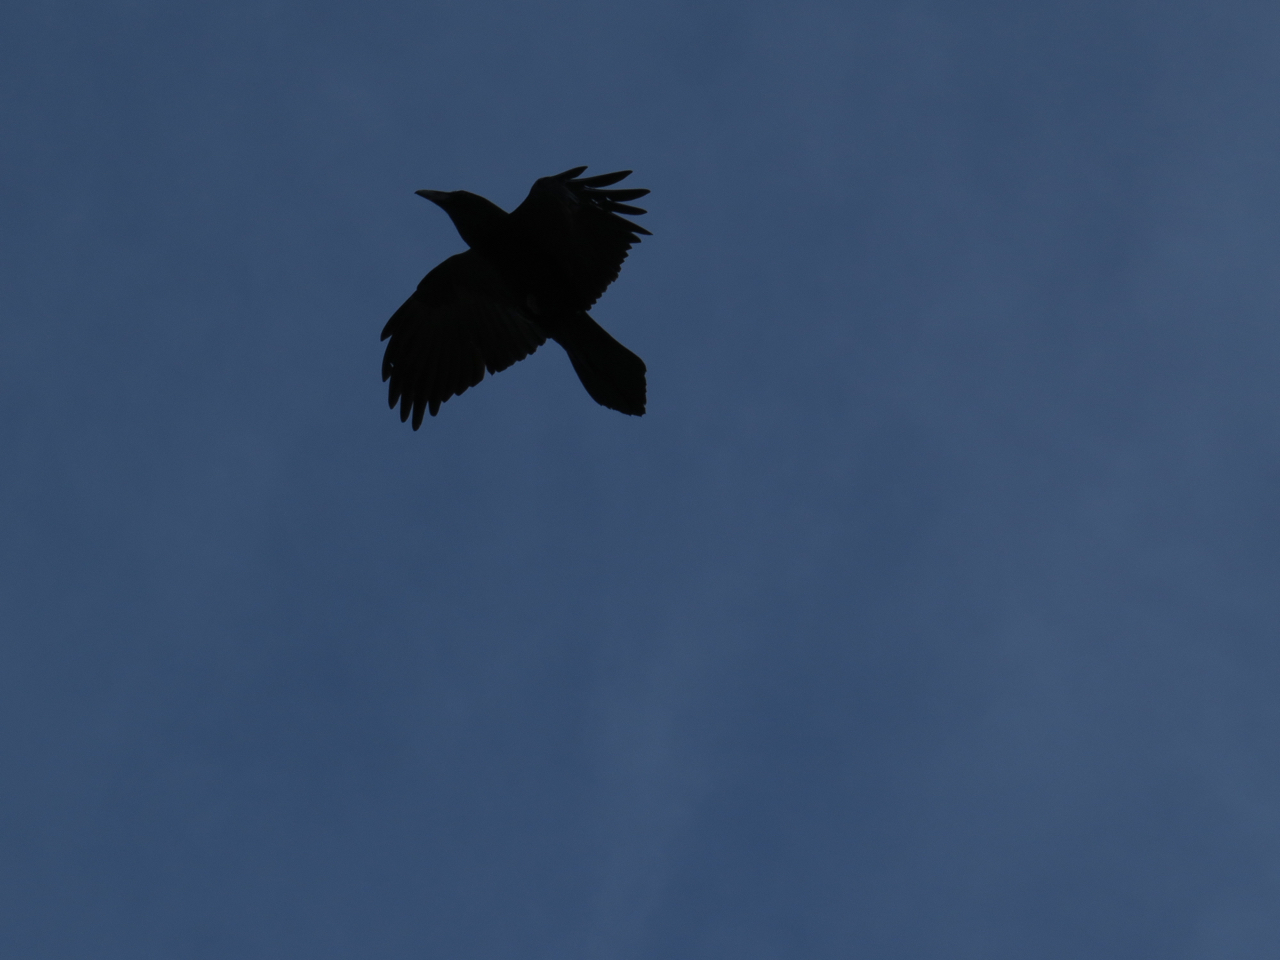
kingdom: Animalia
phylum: Chordata
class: Aves
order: Passeriformes
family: Corvidae
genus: Corvus
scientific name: Corvus corax
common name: Common raven
